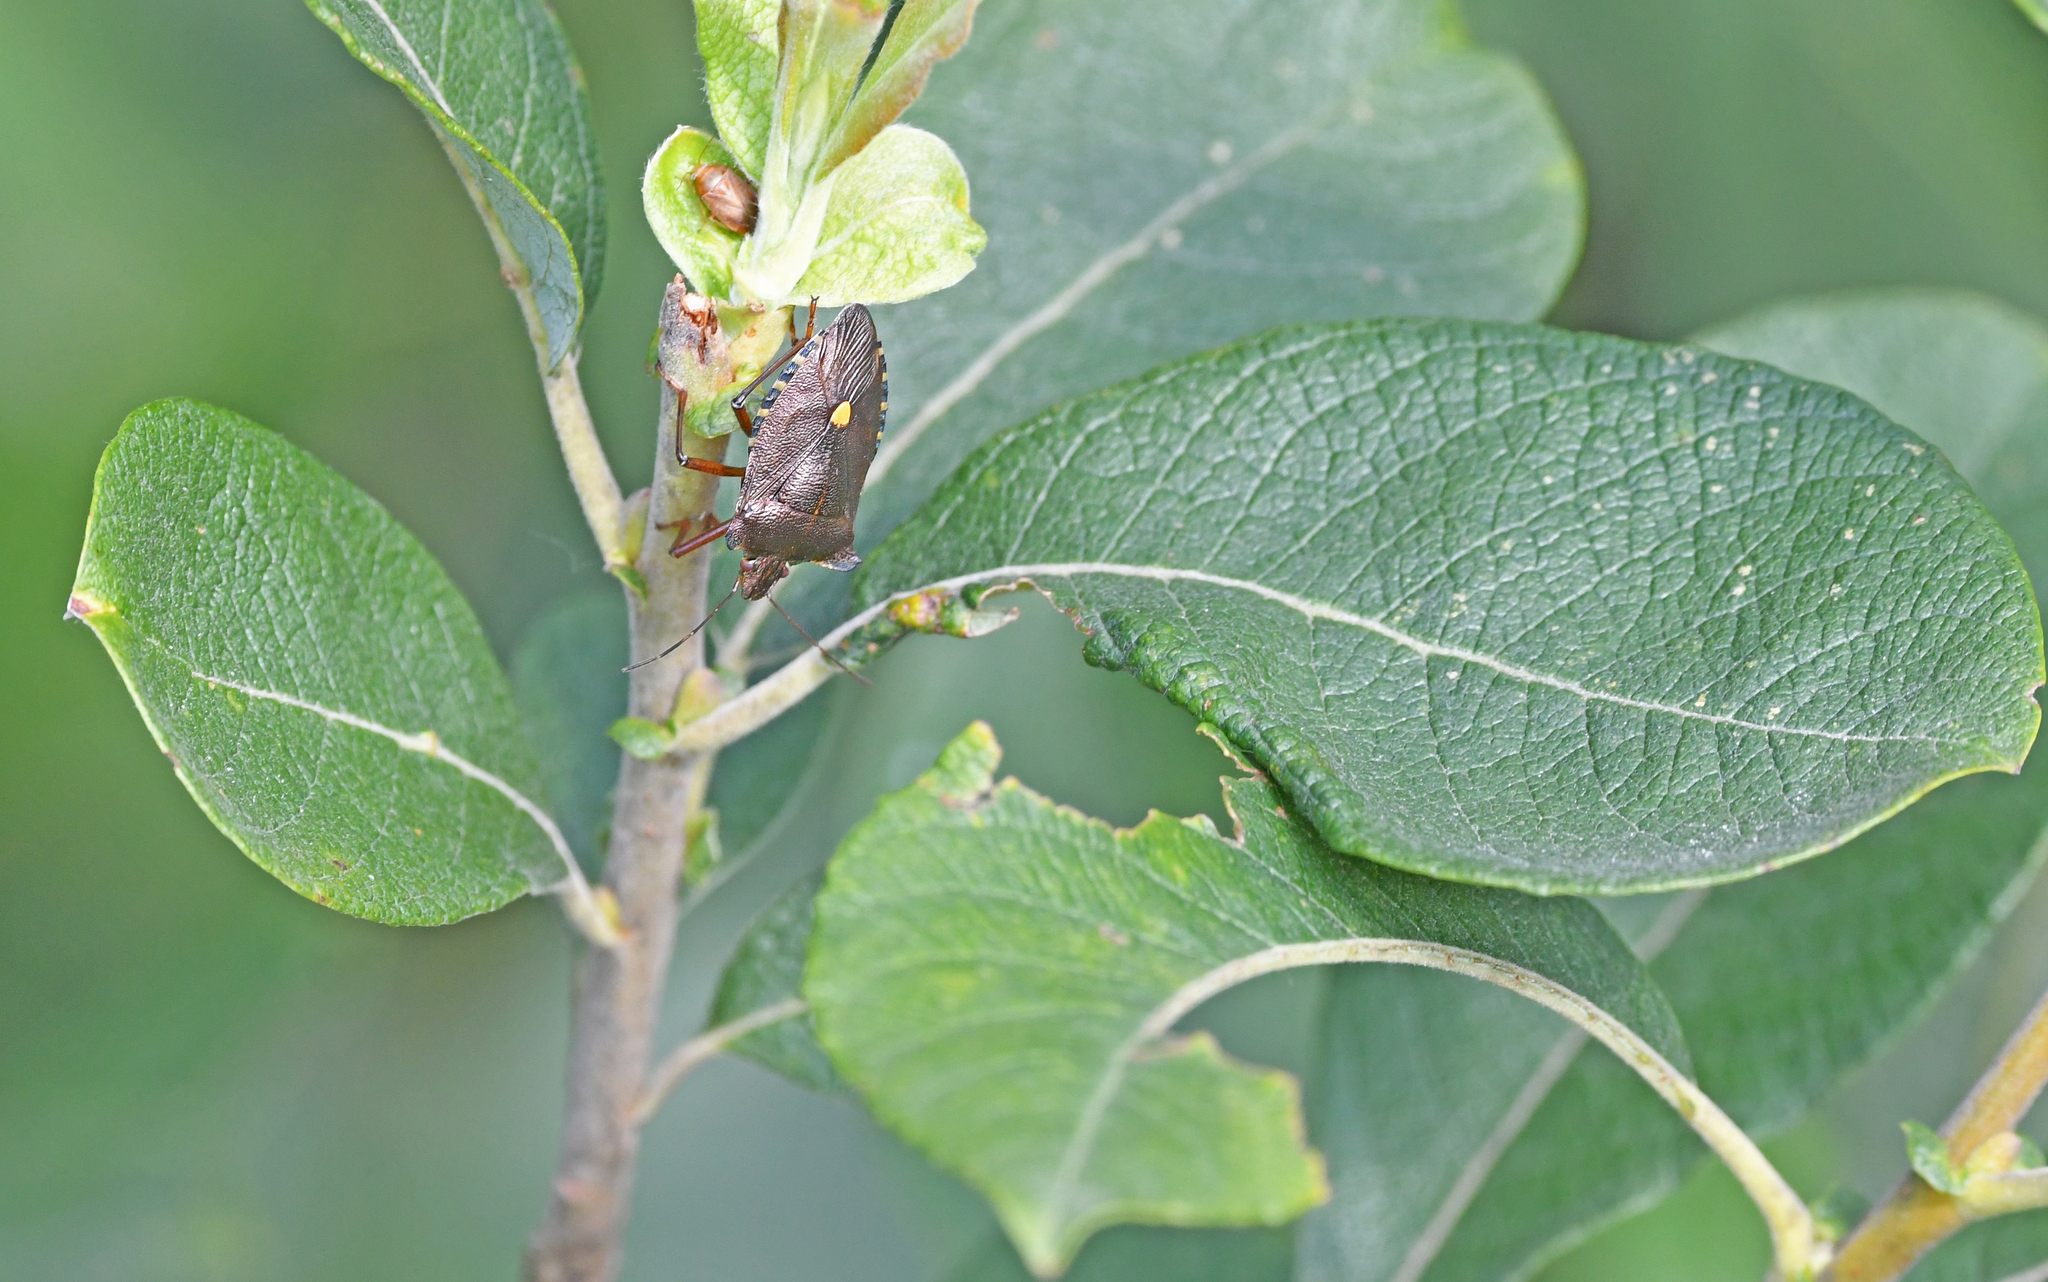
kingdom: Animalia
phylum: Arthropoda
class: Insecta
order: Hemiptera
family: Pentatomidae
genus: Pentatoma
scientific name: Pentatoma rufipes
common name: Forest bug
